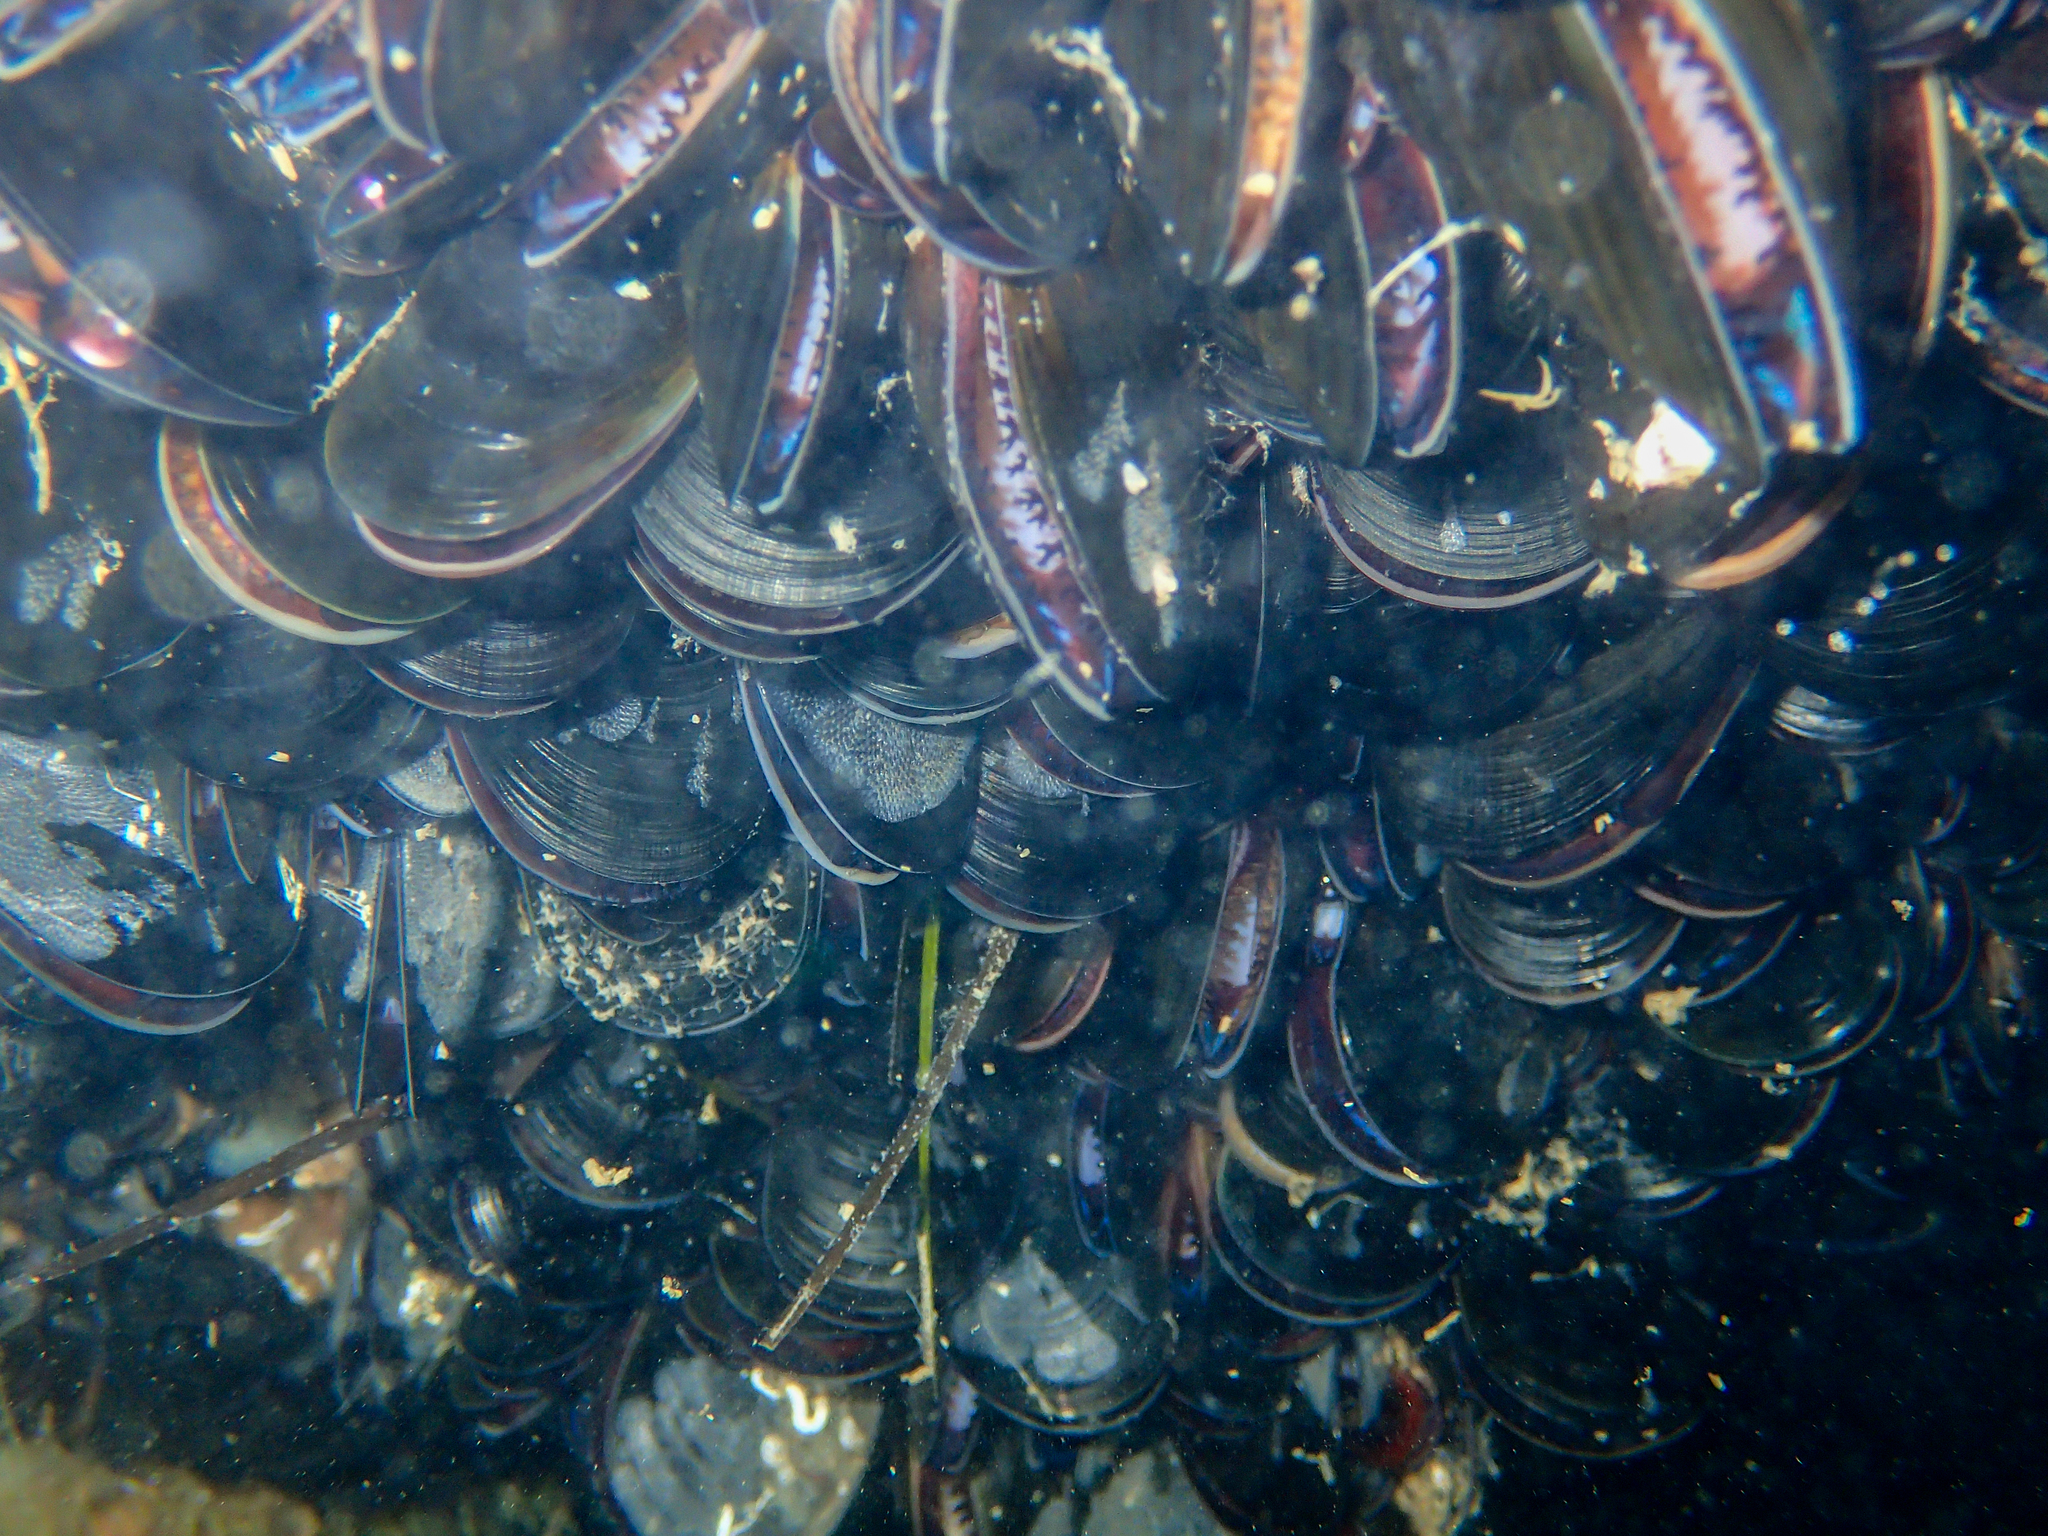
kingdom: Animalia
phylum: Mollusca
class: Bivalvia
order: Mytilida
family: Mytilidae
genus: Mytilus
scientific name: Mytilus galloprovincialis
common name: Mediterranean mussel
